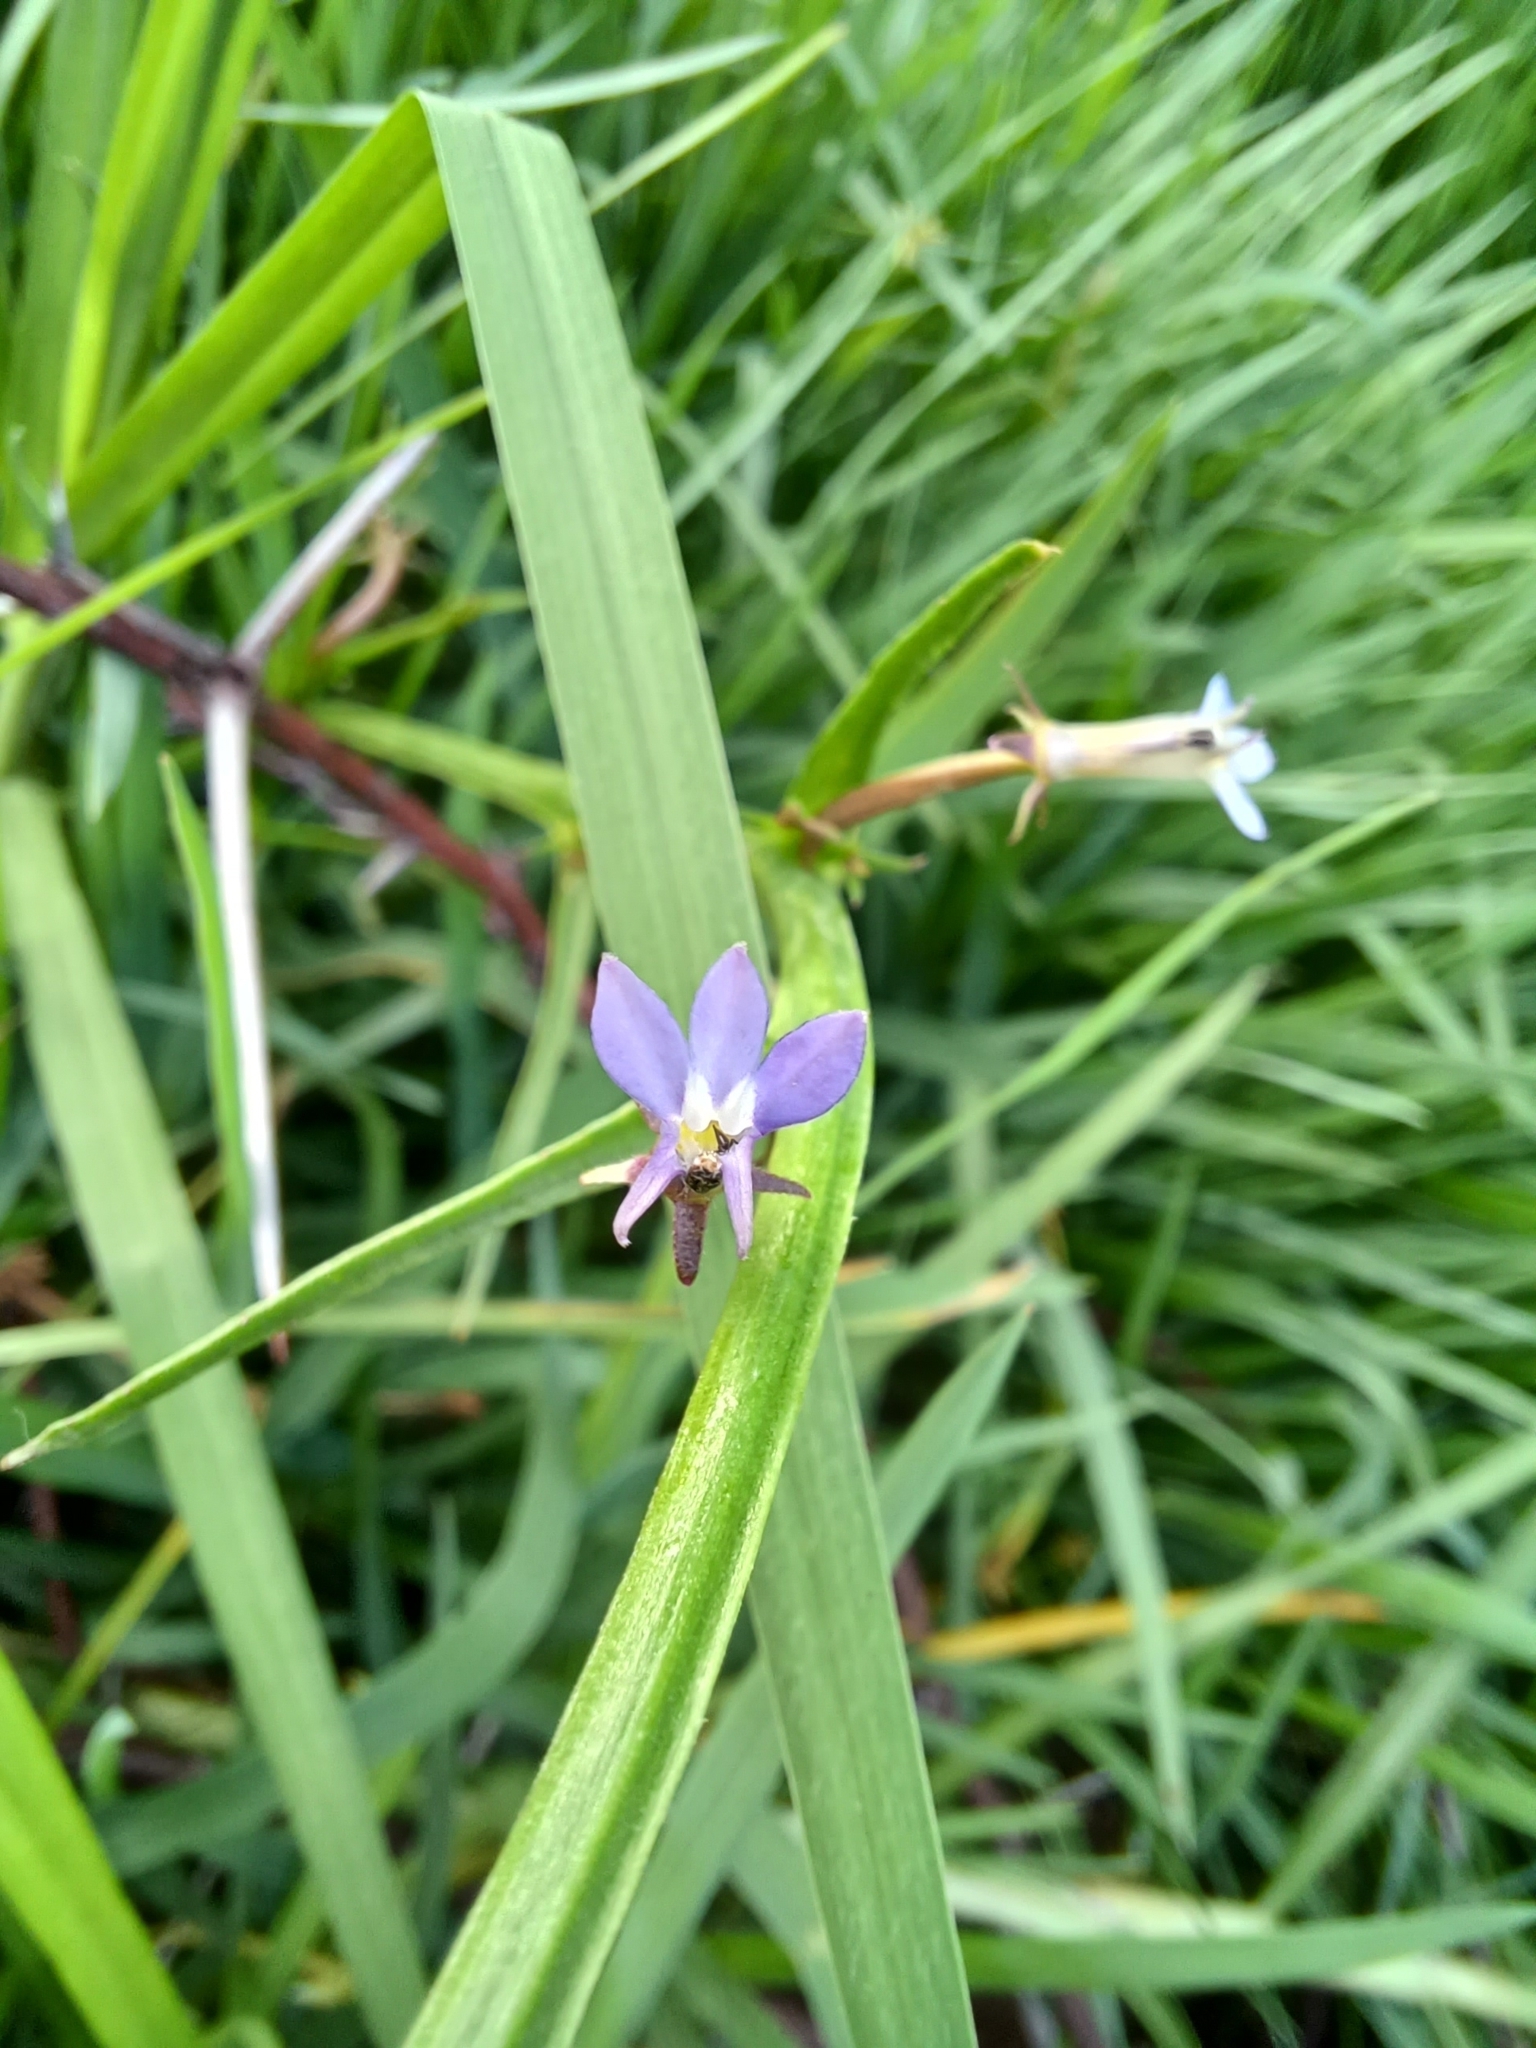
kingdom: Plantae
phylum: Tracheophyta
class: Magnoliopsida
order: Asterales
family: Campanulaceae
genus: Grammatotheca
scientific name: Grammatotheca bergiana
